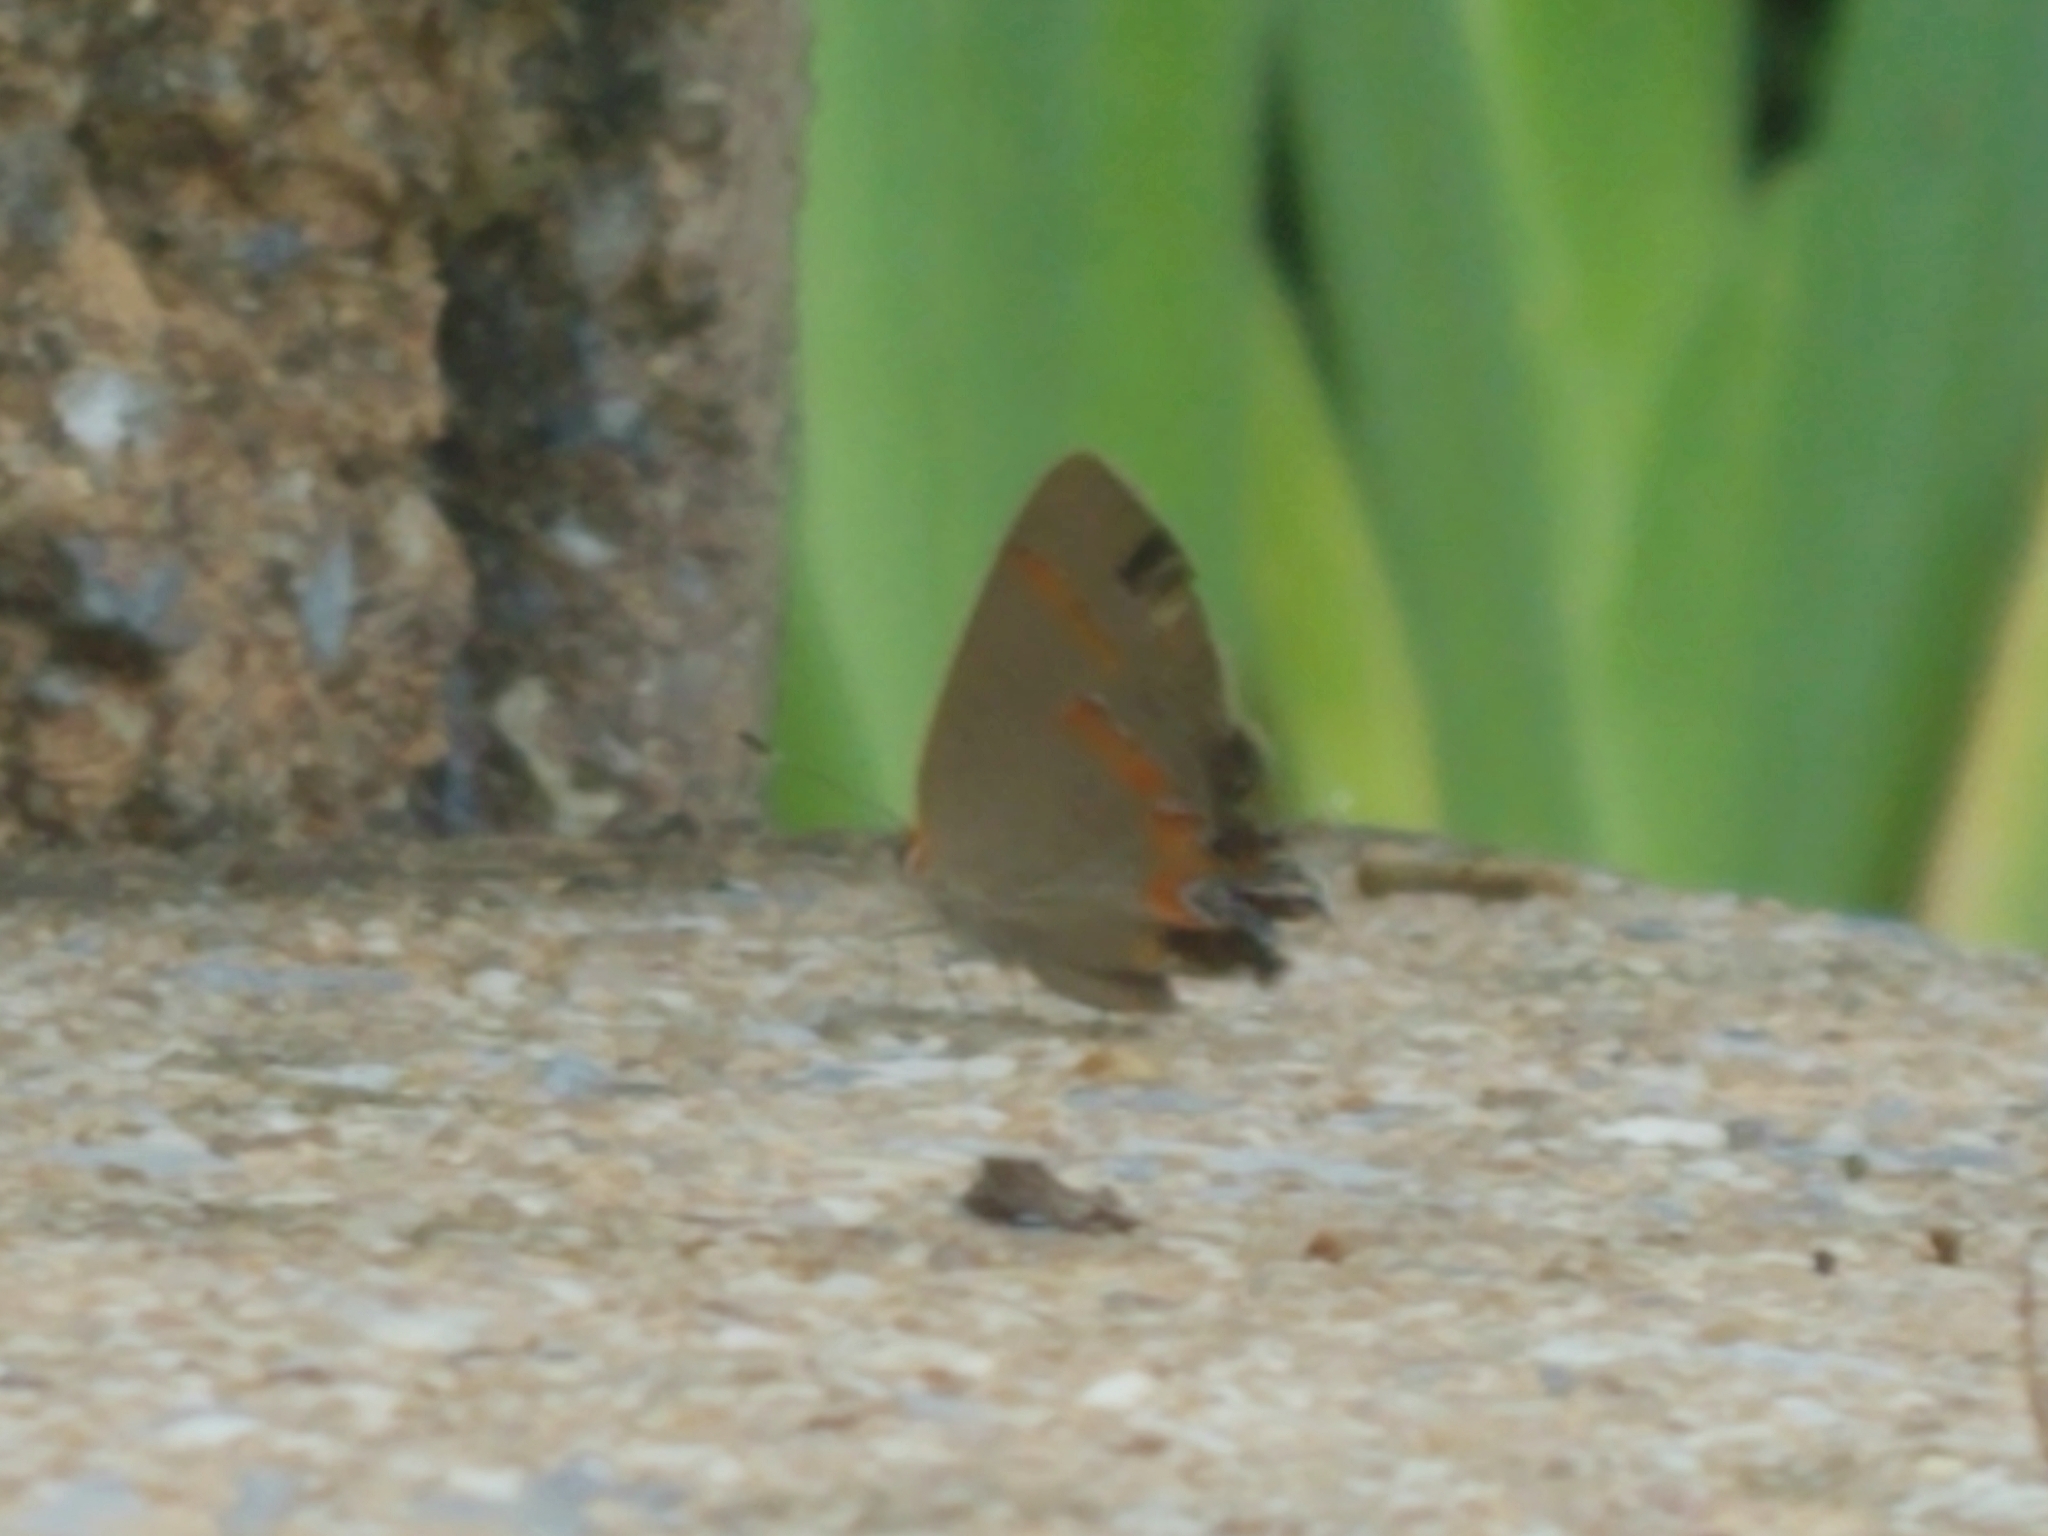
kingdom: Animalia
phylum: Arthropoda
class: Insecta
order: Lepidoptera
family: Lycaenidae
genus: Calycopis
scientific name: Calycopis cecrops
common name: Red-banded hairstreak
